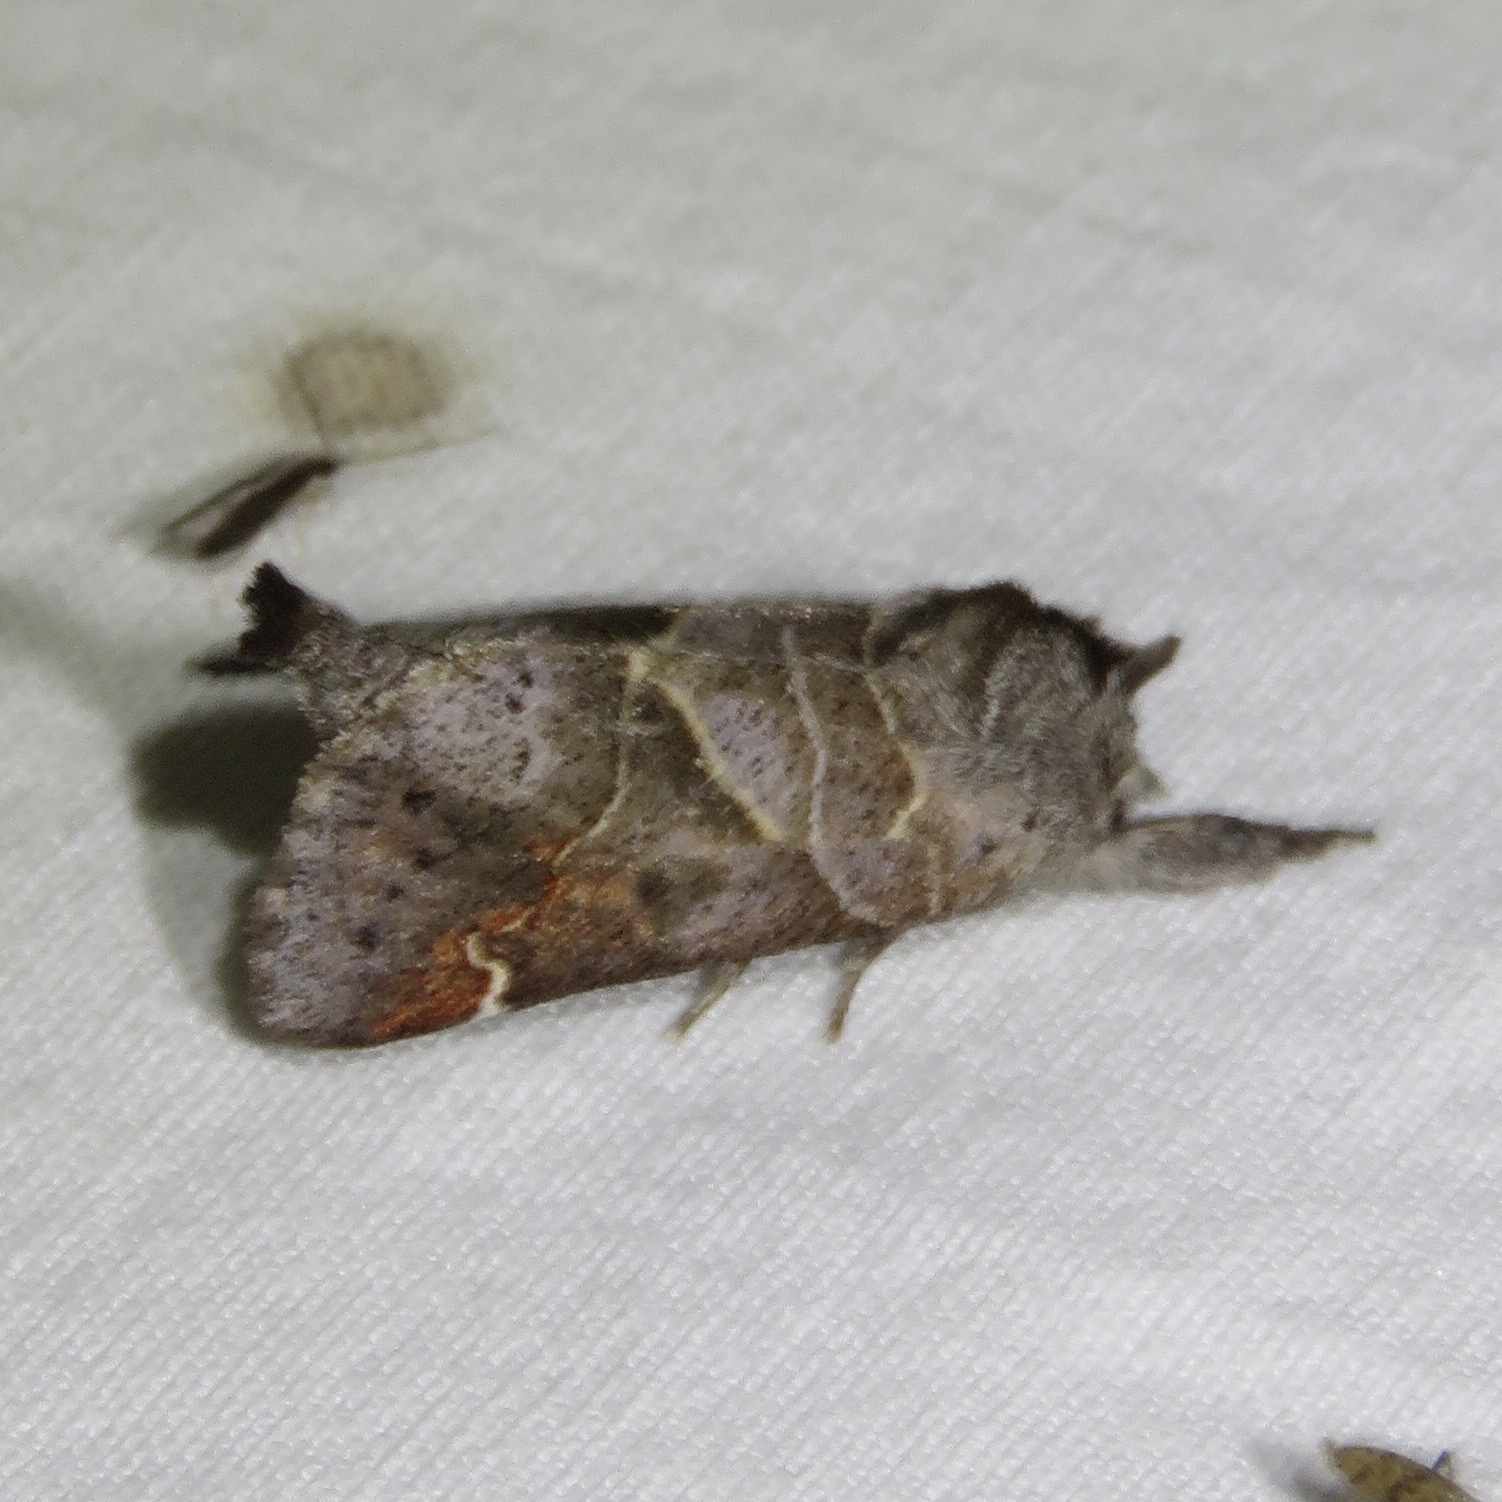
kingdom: Animalia
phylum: Arthropoda
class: Insecta
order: Lepidoptera
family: Notodontidae
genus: Clostera
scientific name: Clostera apicalis
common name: Apical prominent
